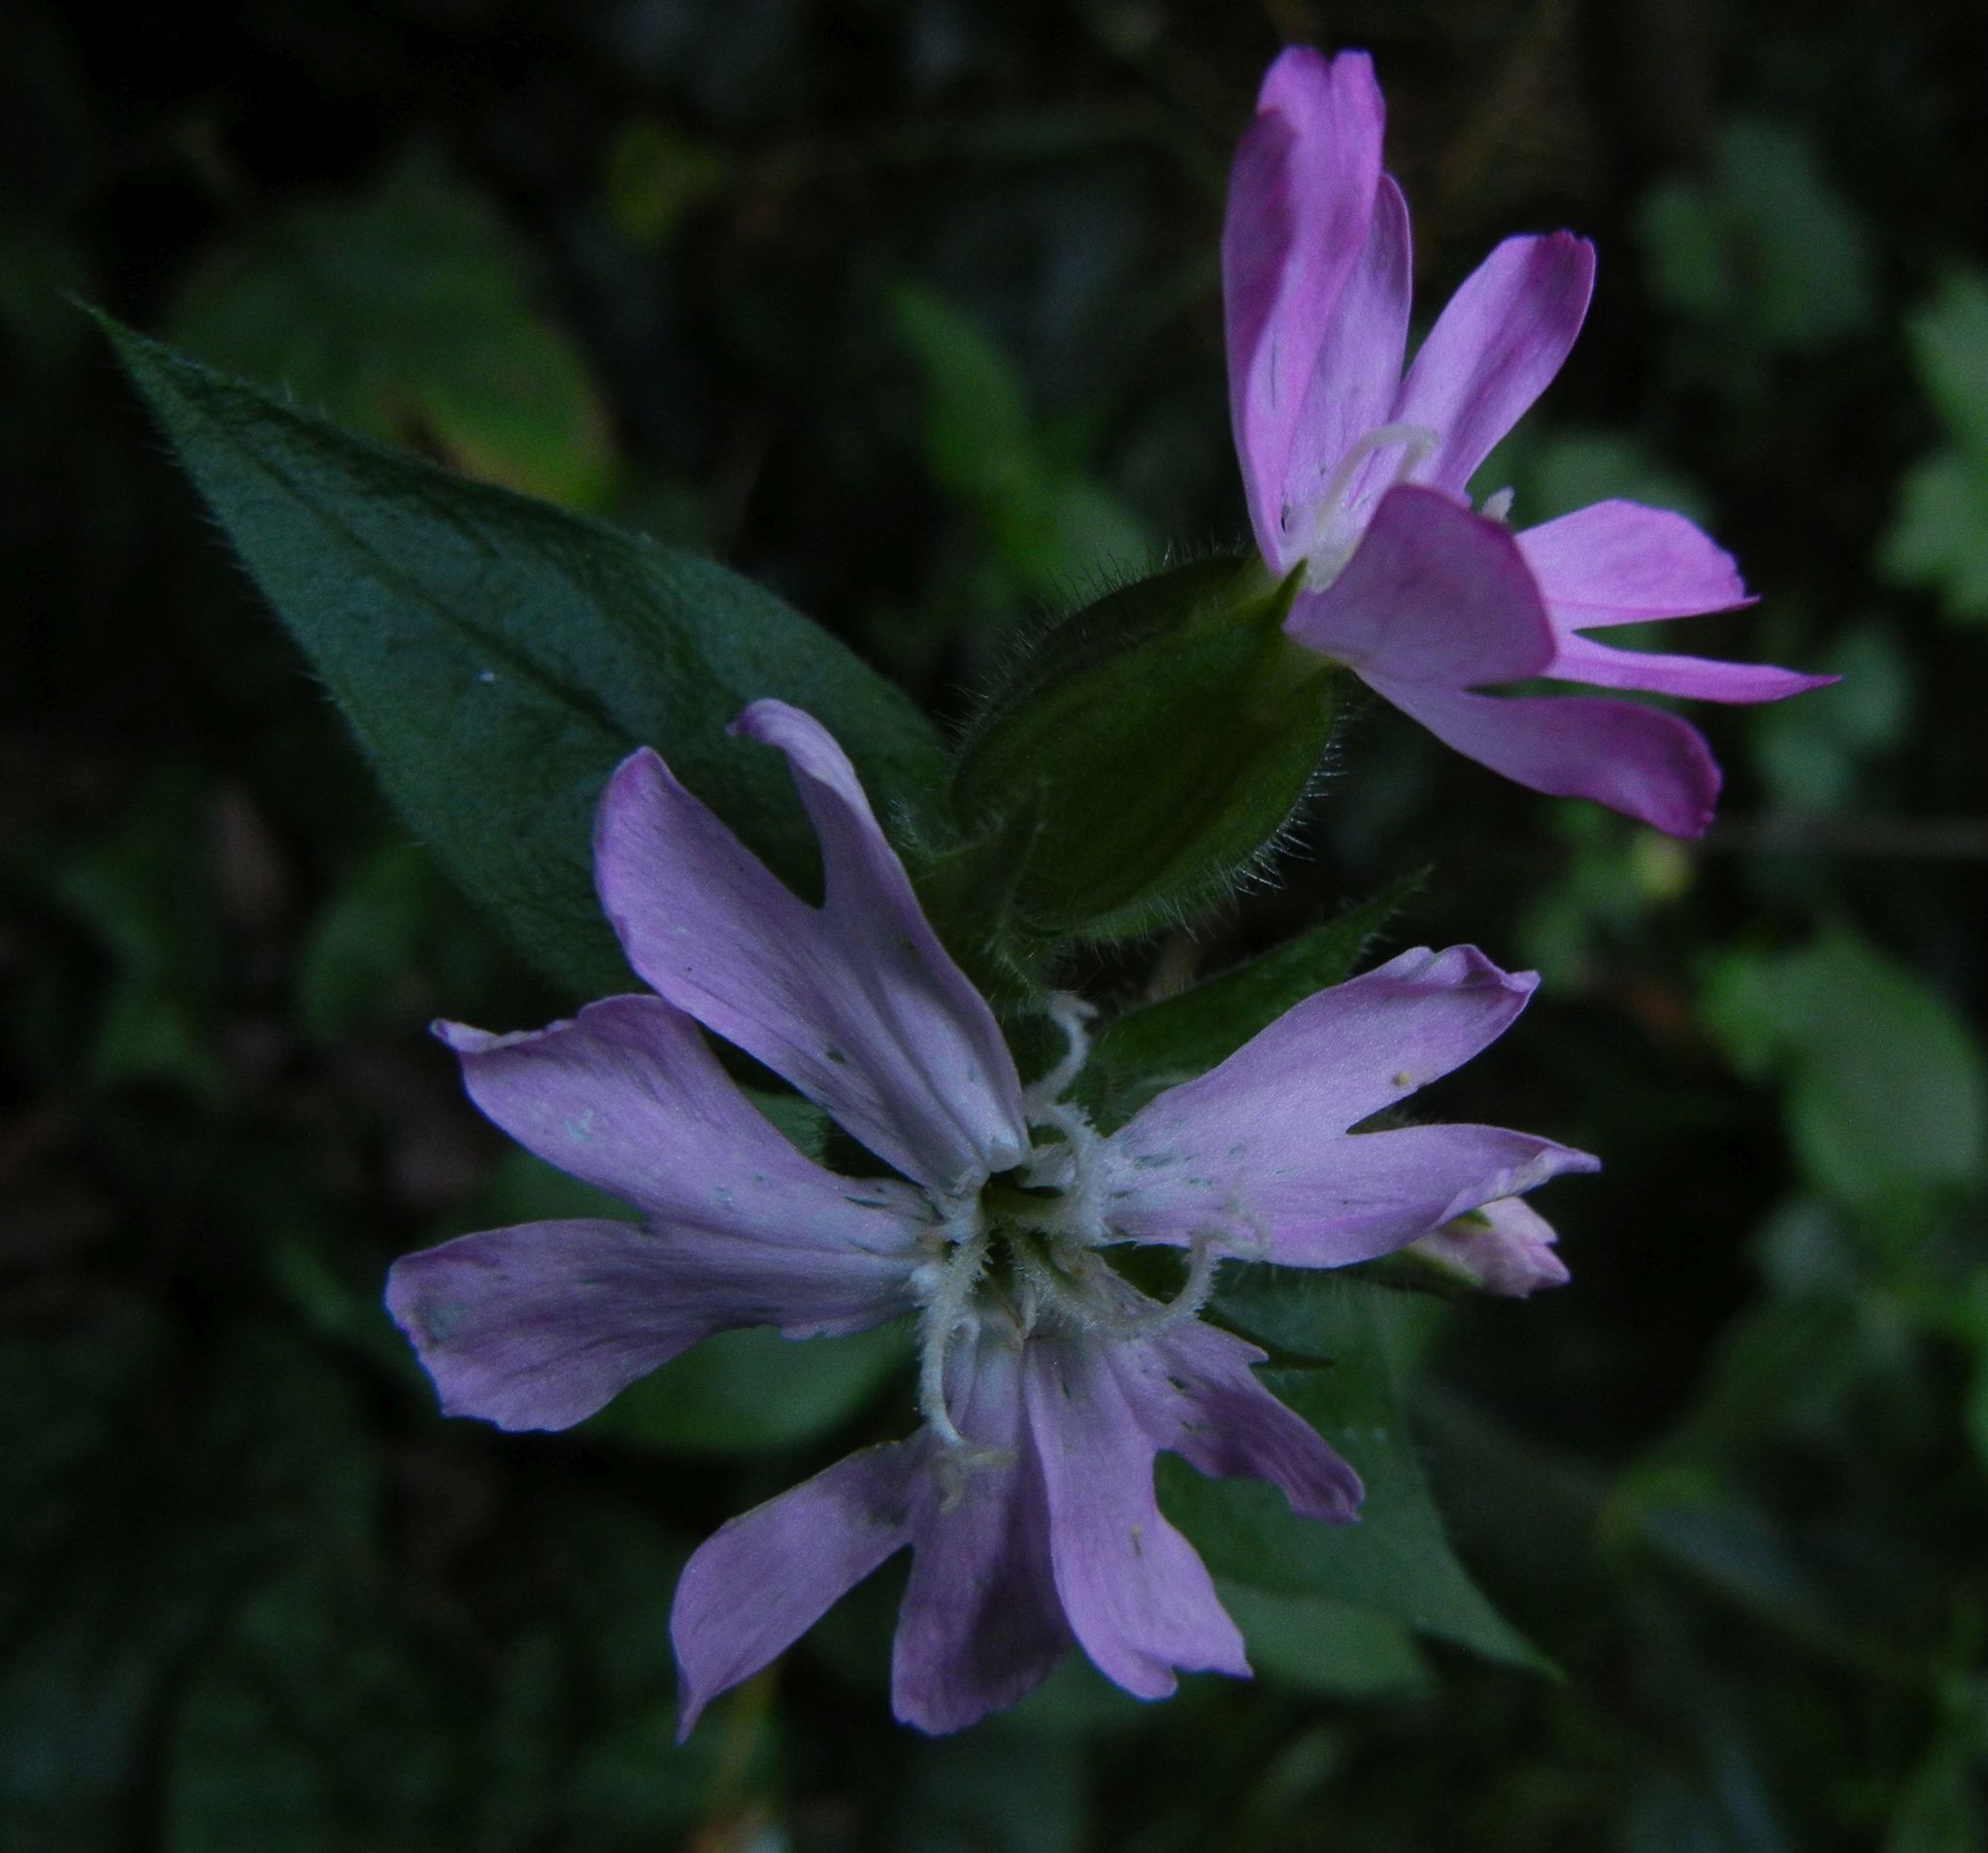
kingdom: Plantae
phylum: Tracheophyta
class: Magnoliopsida
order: Caryophyllales
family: Caryophyllaceae
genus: Silene
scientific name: Silene dioica
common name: Red campion
